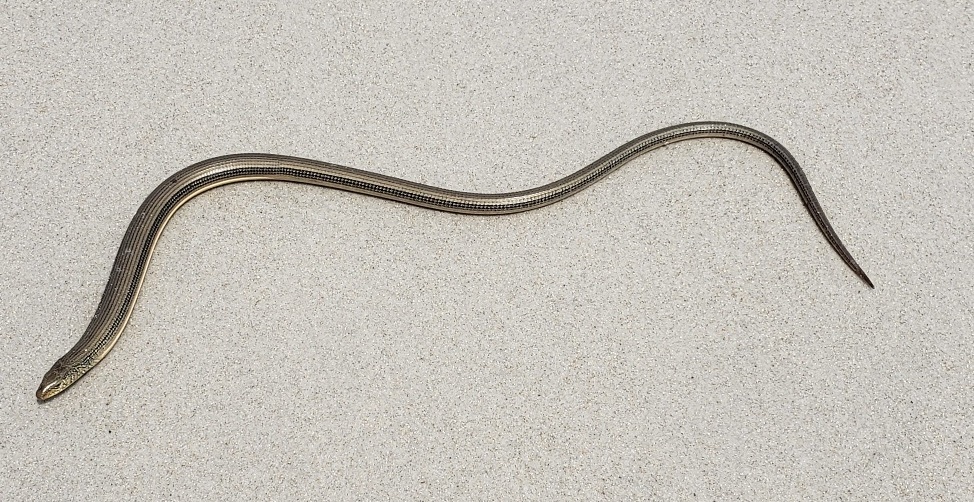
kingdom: Animalia
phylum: Chordata
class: Squamata
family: Anguidae
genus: Ophisaurus
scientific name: Ophisaurus ventralis
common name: Eastern glass lizard
